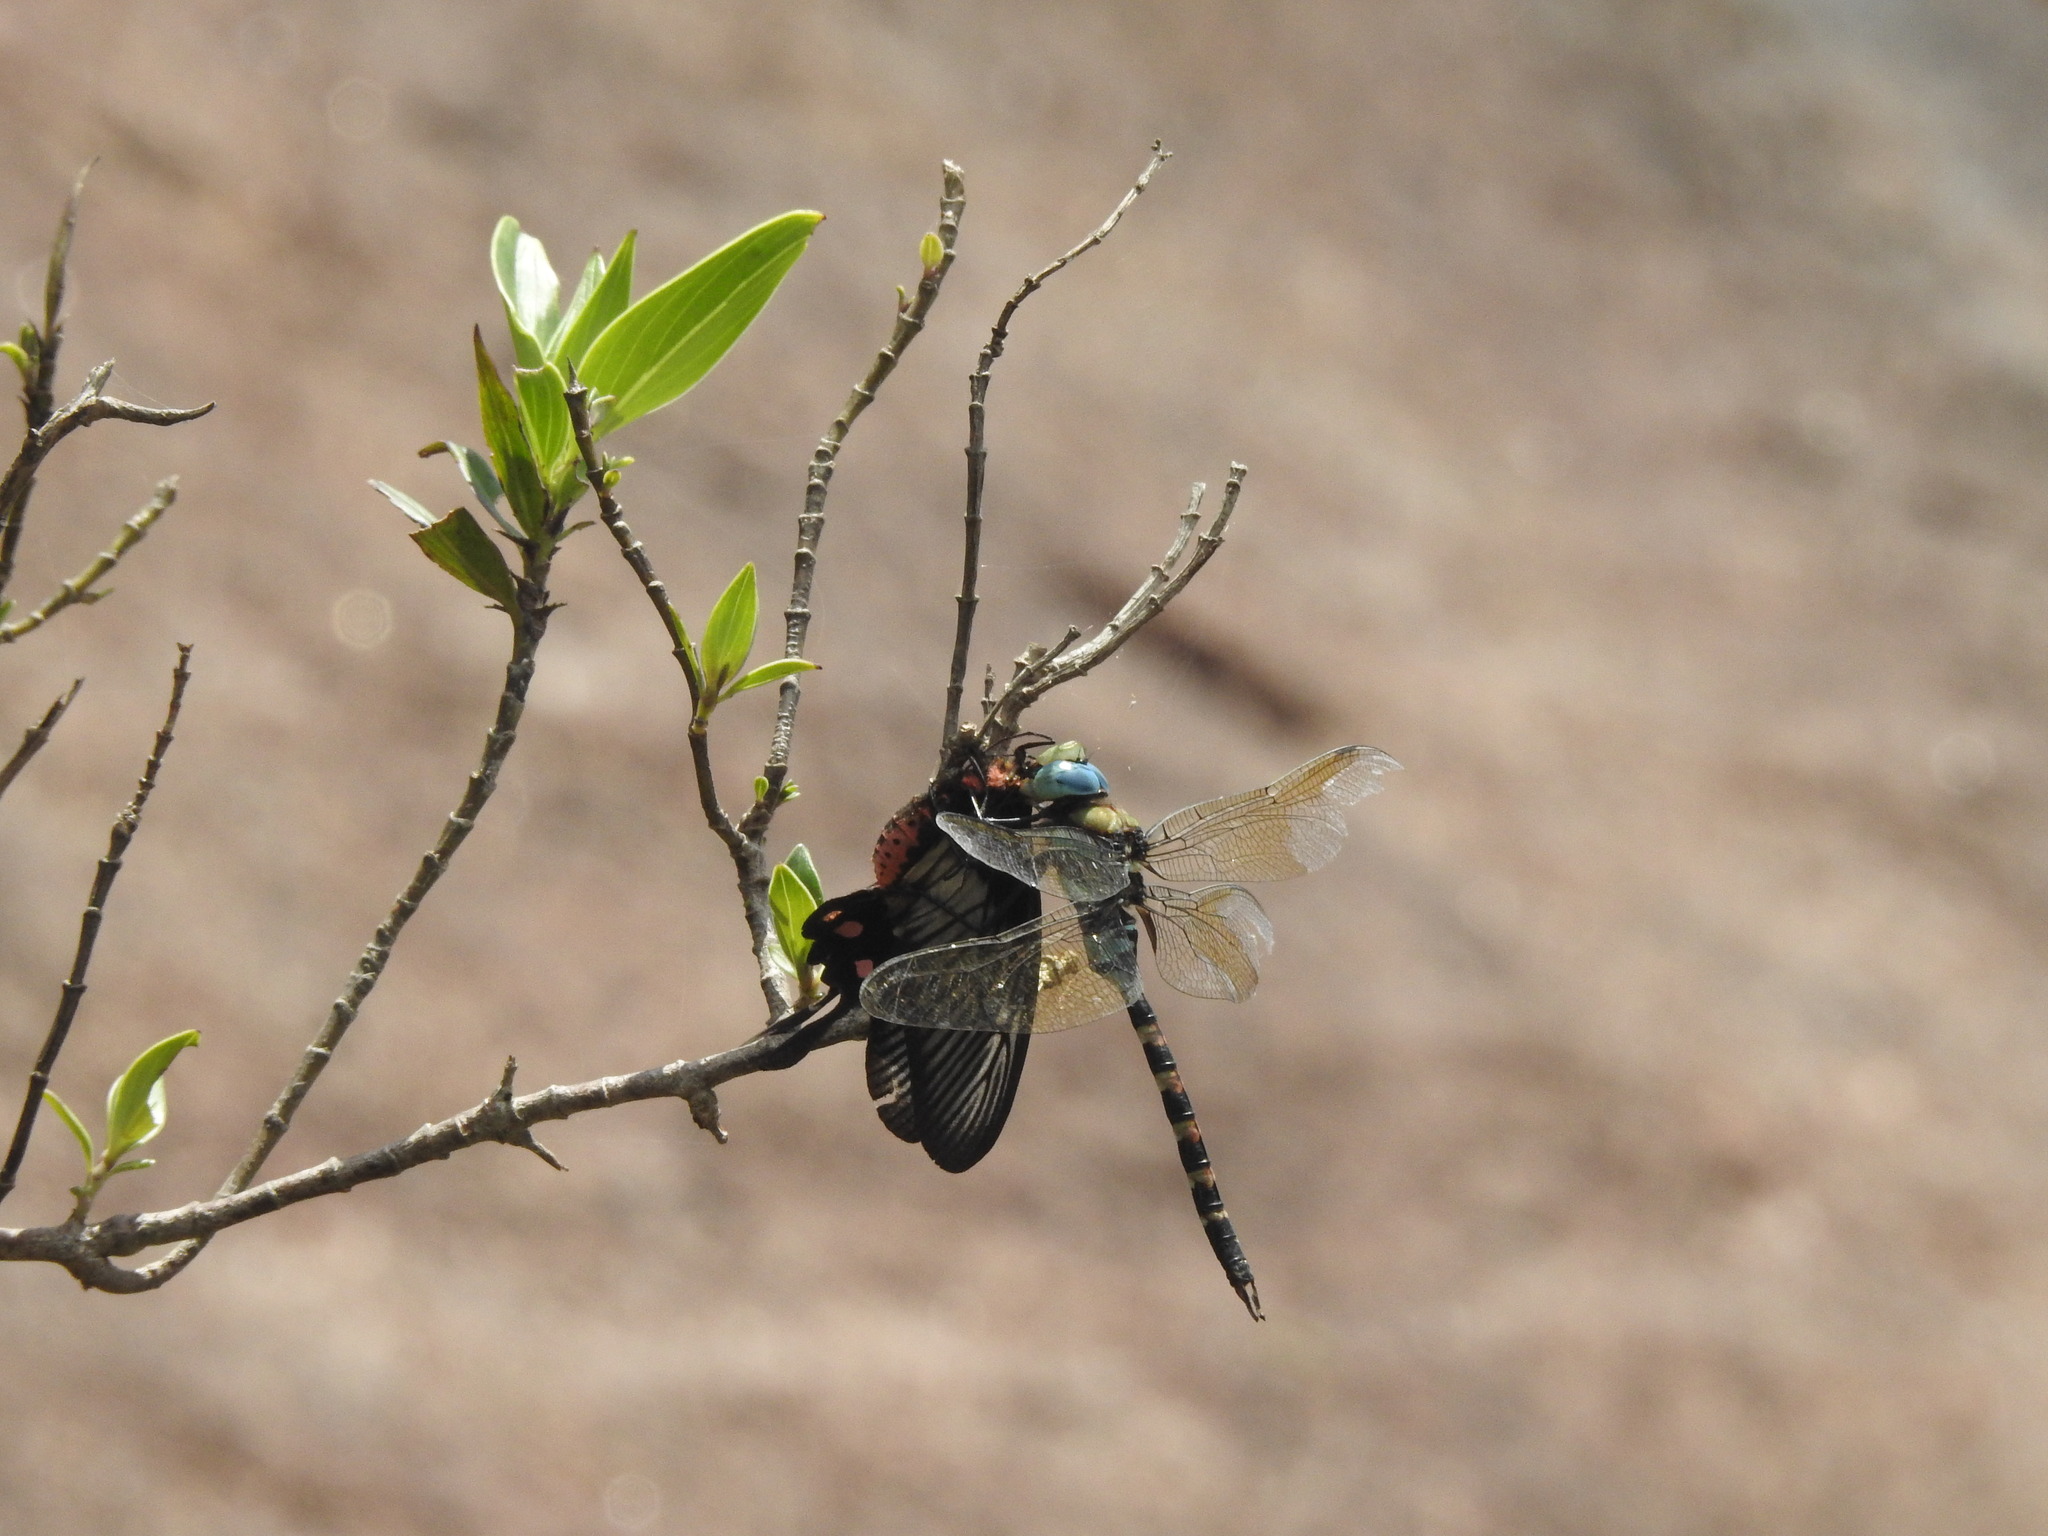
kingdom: Animalia
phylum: Arthropoda
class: Insecta
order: Odonata
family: Aeshnidae
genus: Anax
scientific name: Anax immaculifrons
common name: Magnificent emperor
